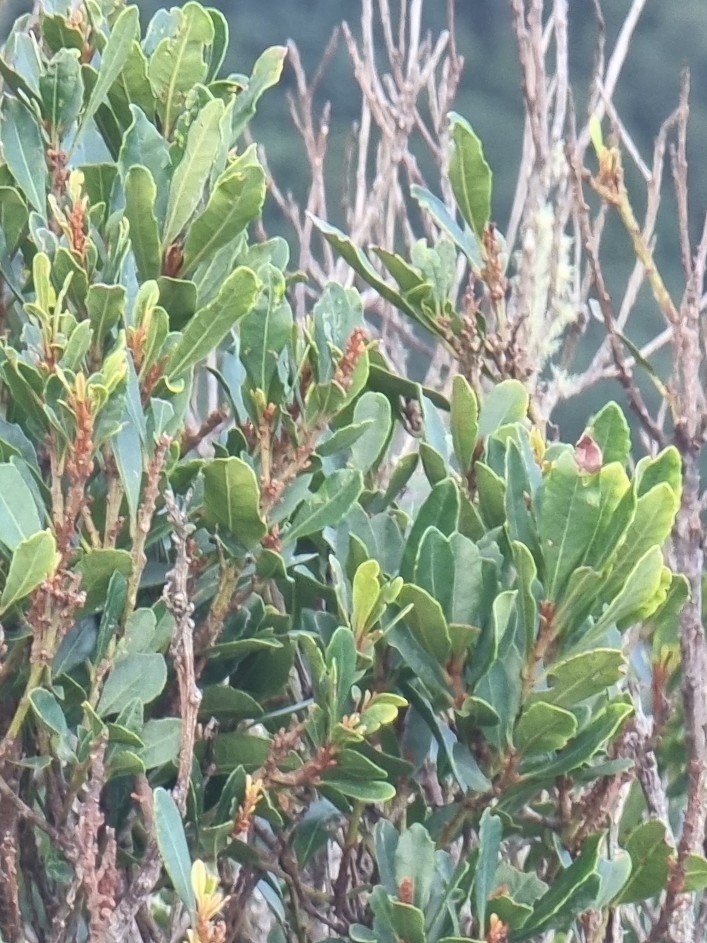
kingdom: Plantae
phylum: Tracheophyta
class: Magnoliopsida
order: Fagales
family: Myricaceae
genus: Morella
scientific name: Morella faya
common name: Firetree
